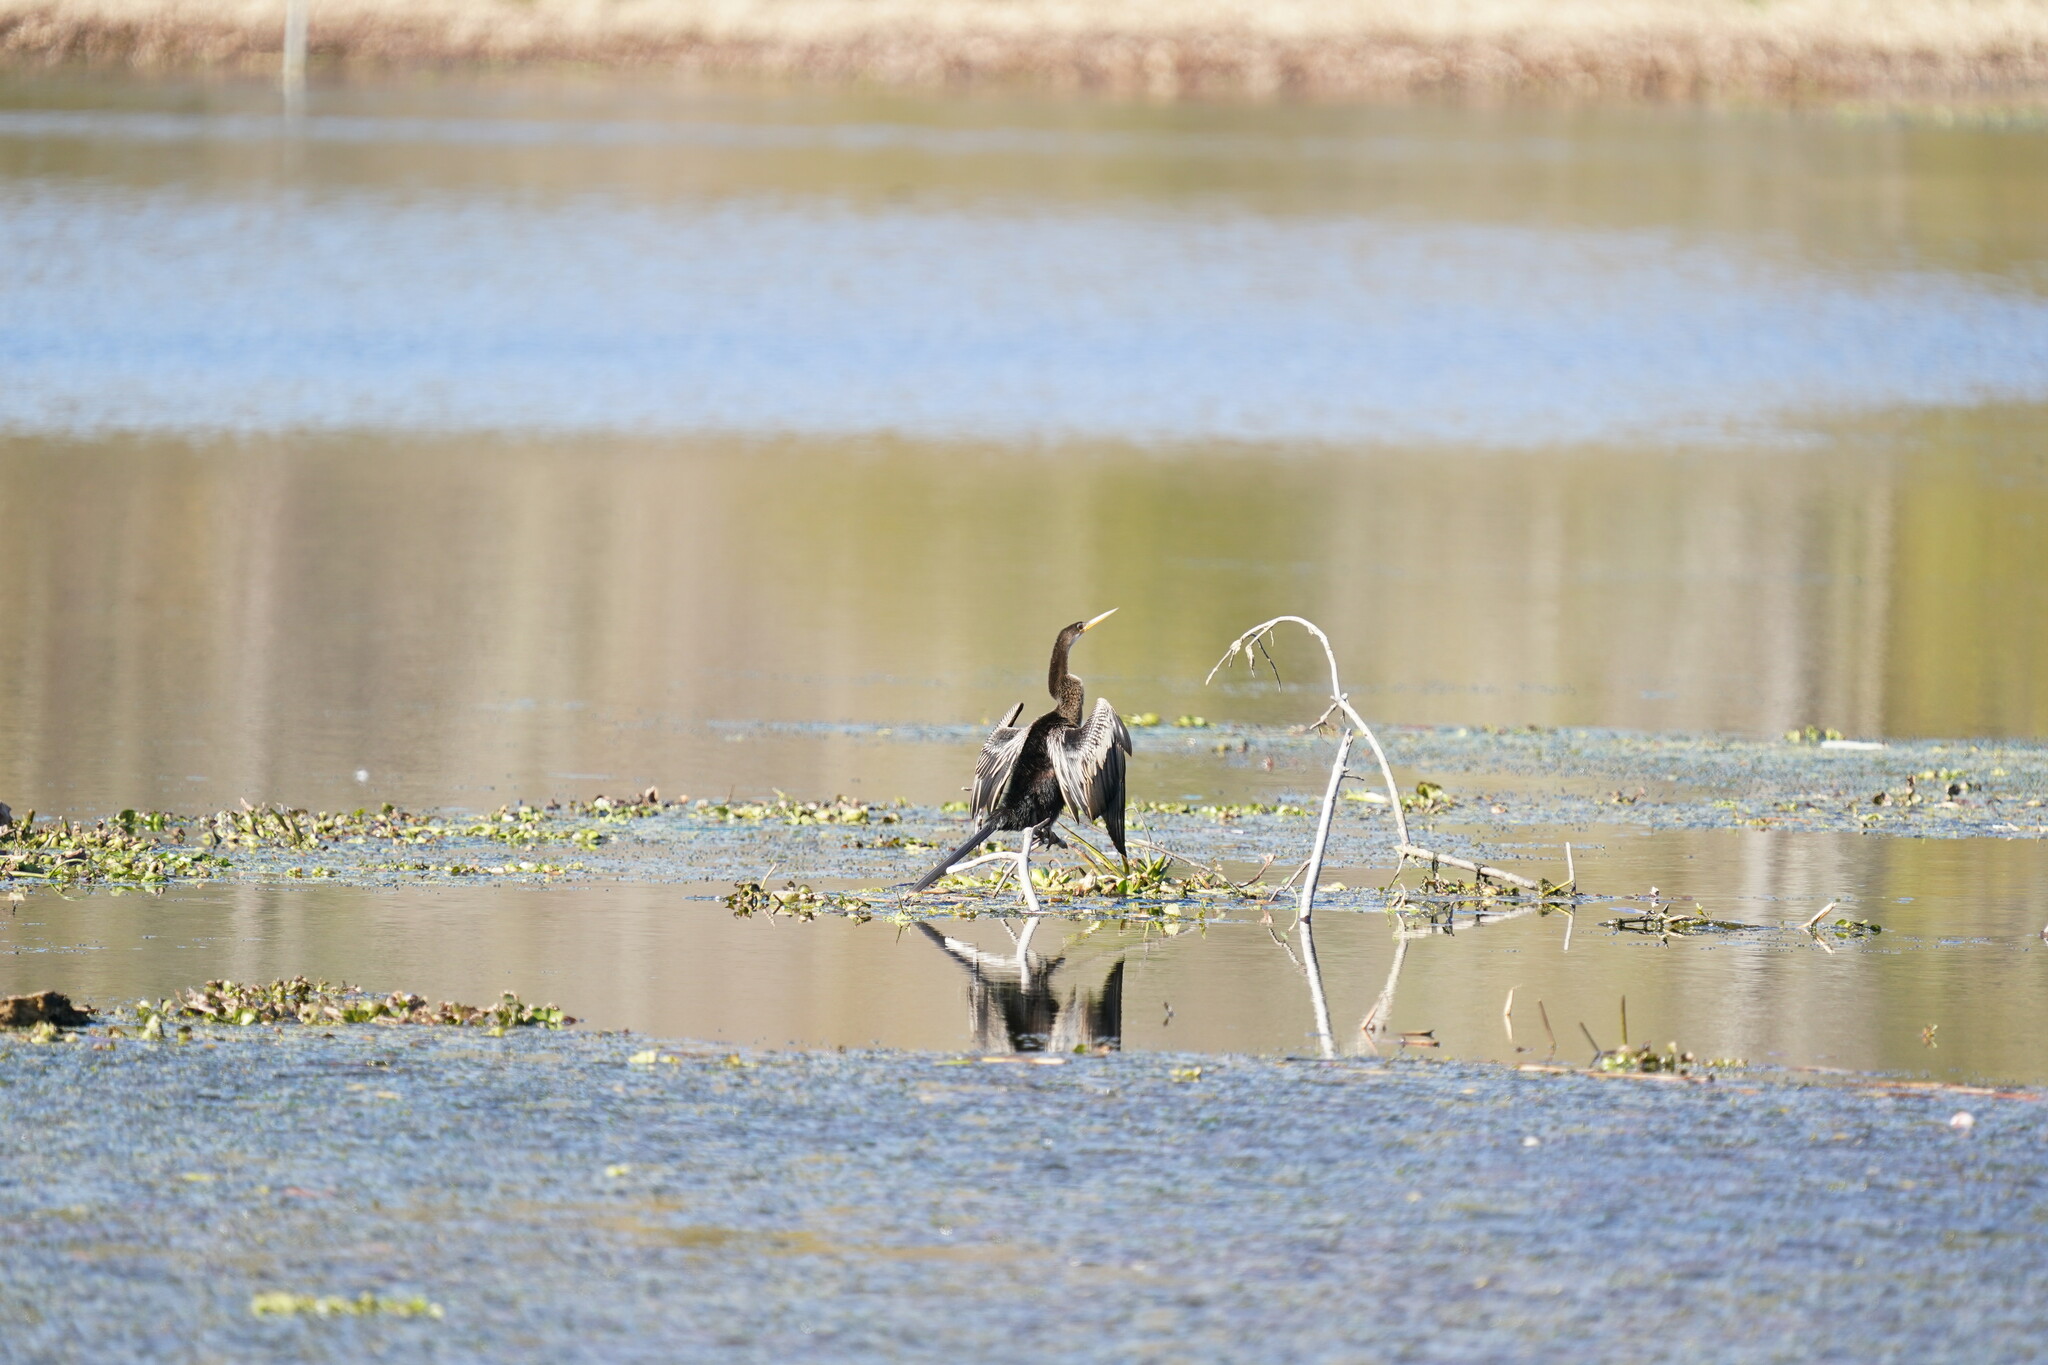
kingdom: Animalia
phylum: Chordata
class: Aves
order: Suliformes
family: Anhingidae
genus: Anhinga
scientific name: Anhinga anhinga
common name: Anhinga
